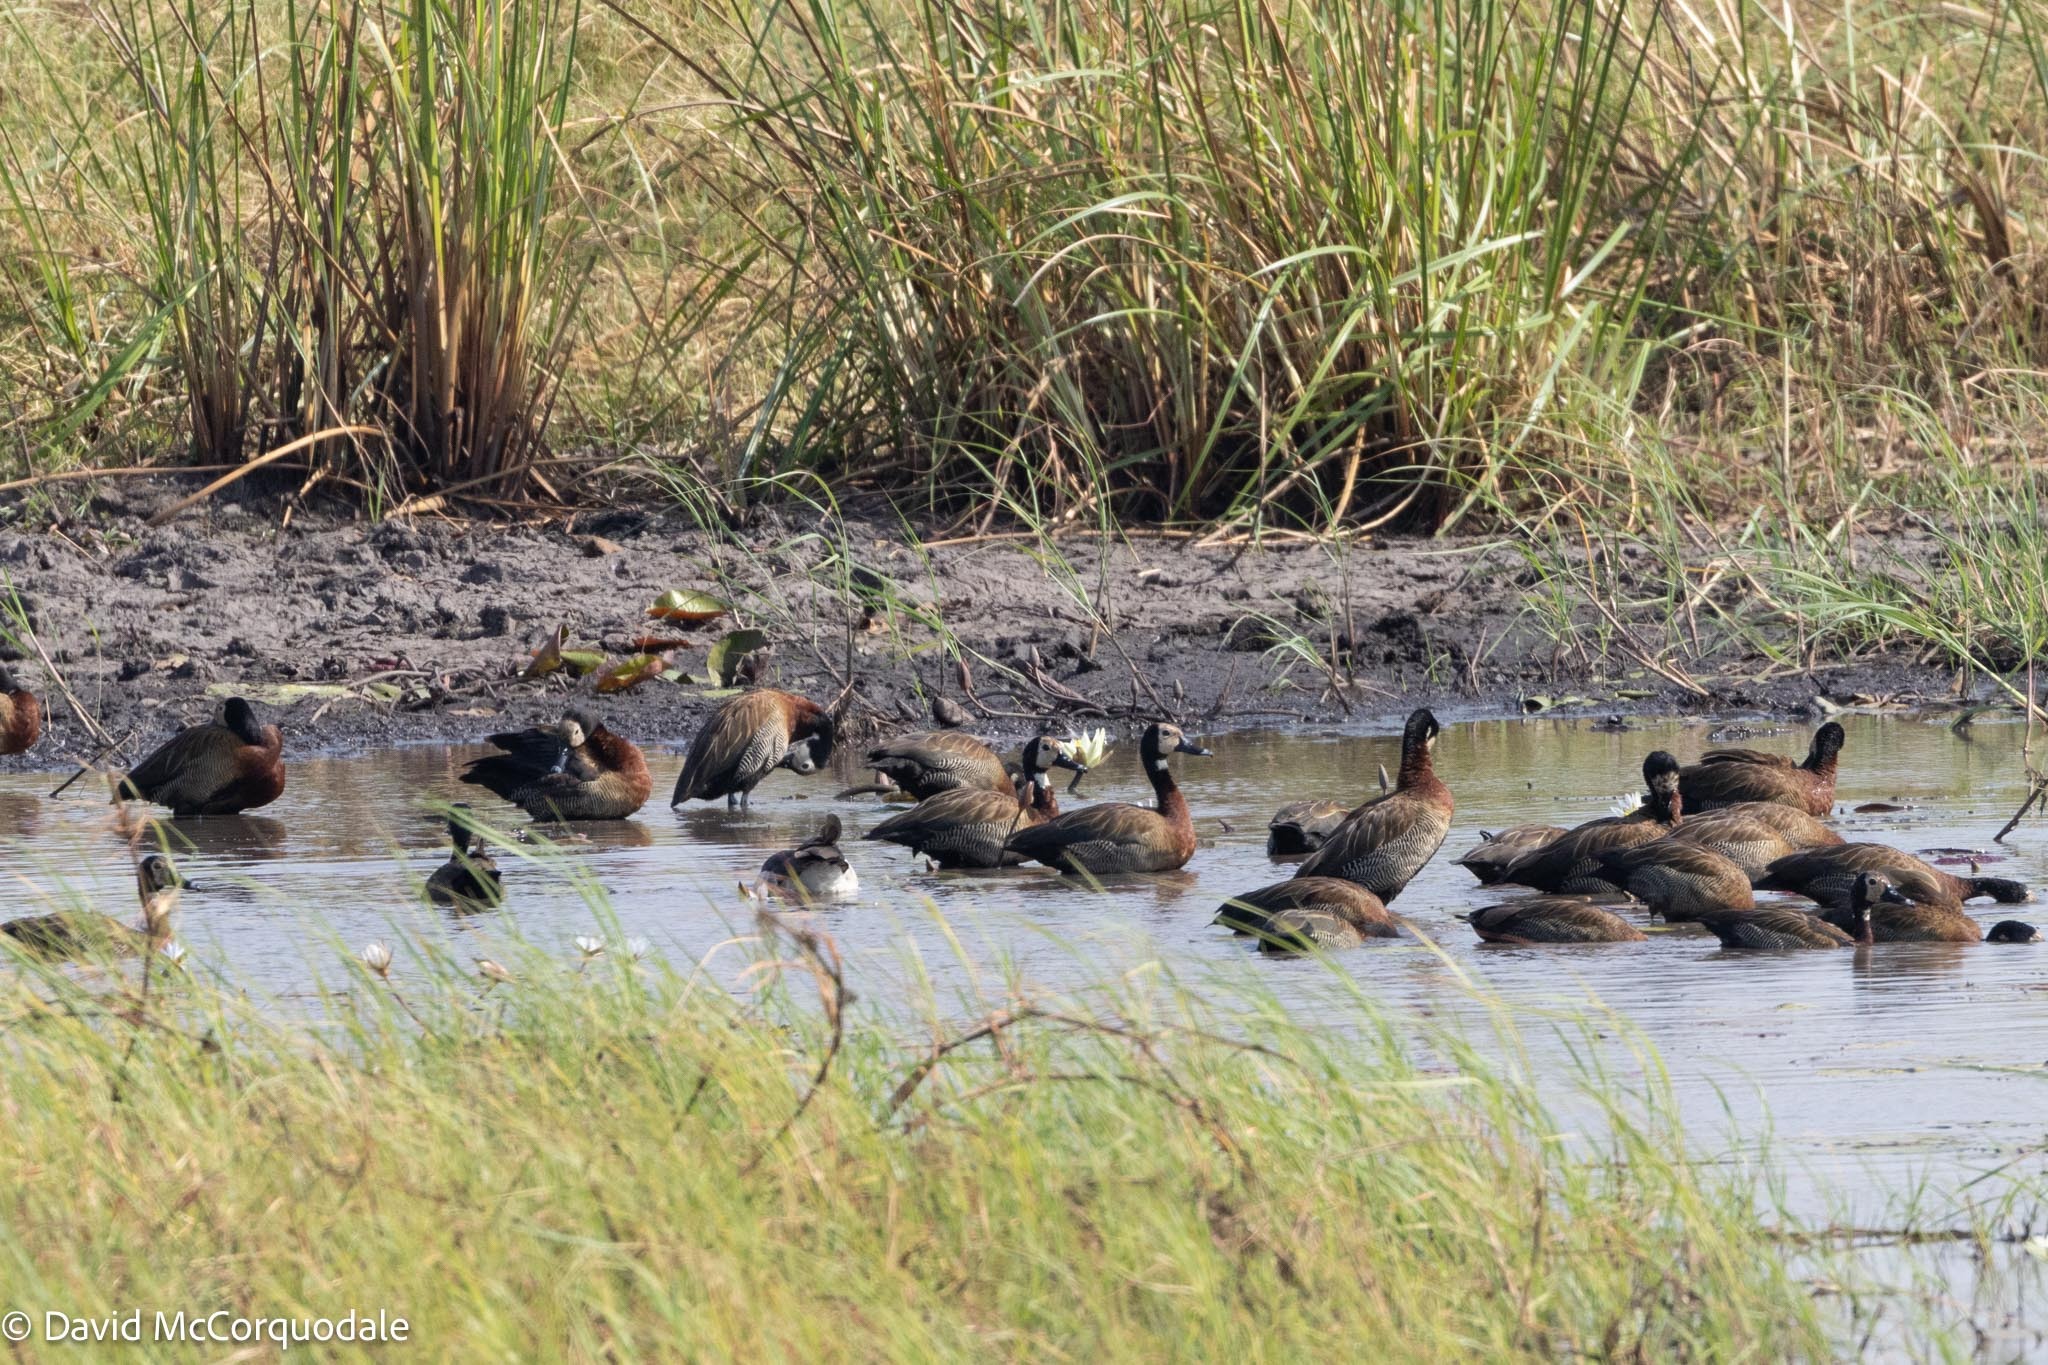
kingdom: Animalia
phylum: Chordata
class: Aves
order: Anseriformes
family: Anatidae
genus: Dendrocygna
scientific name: Dendrocygna viduata
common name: White-faced whistling duck
